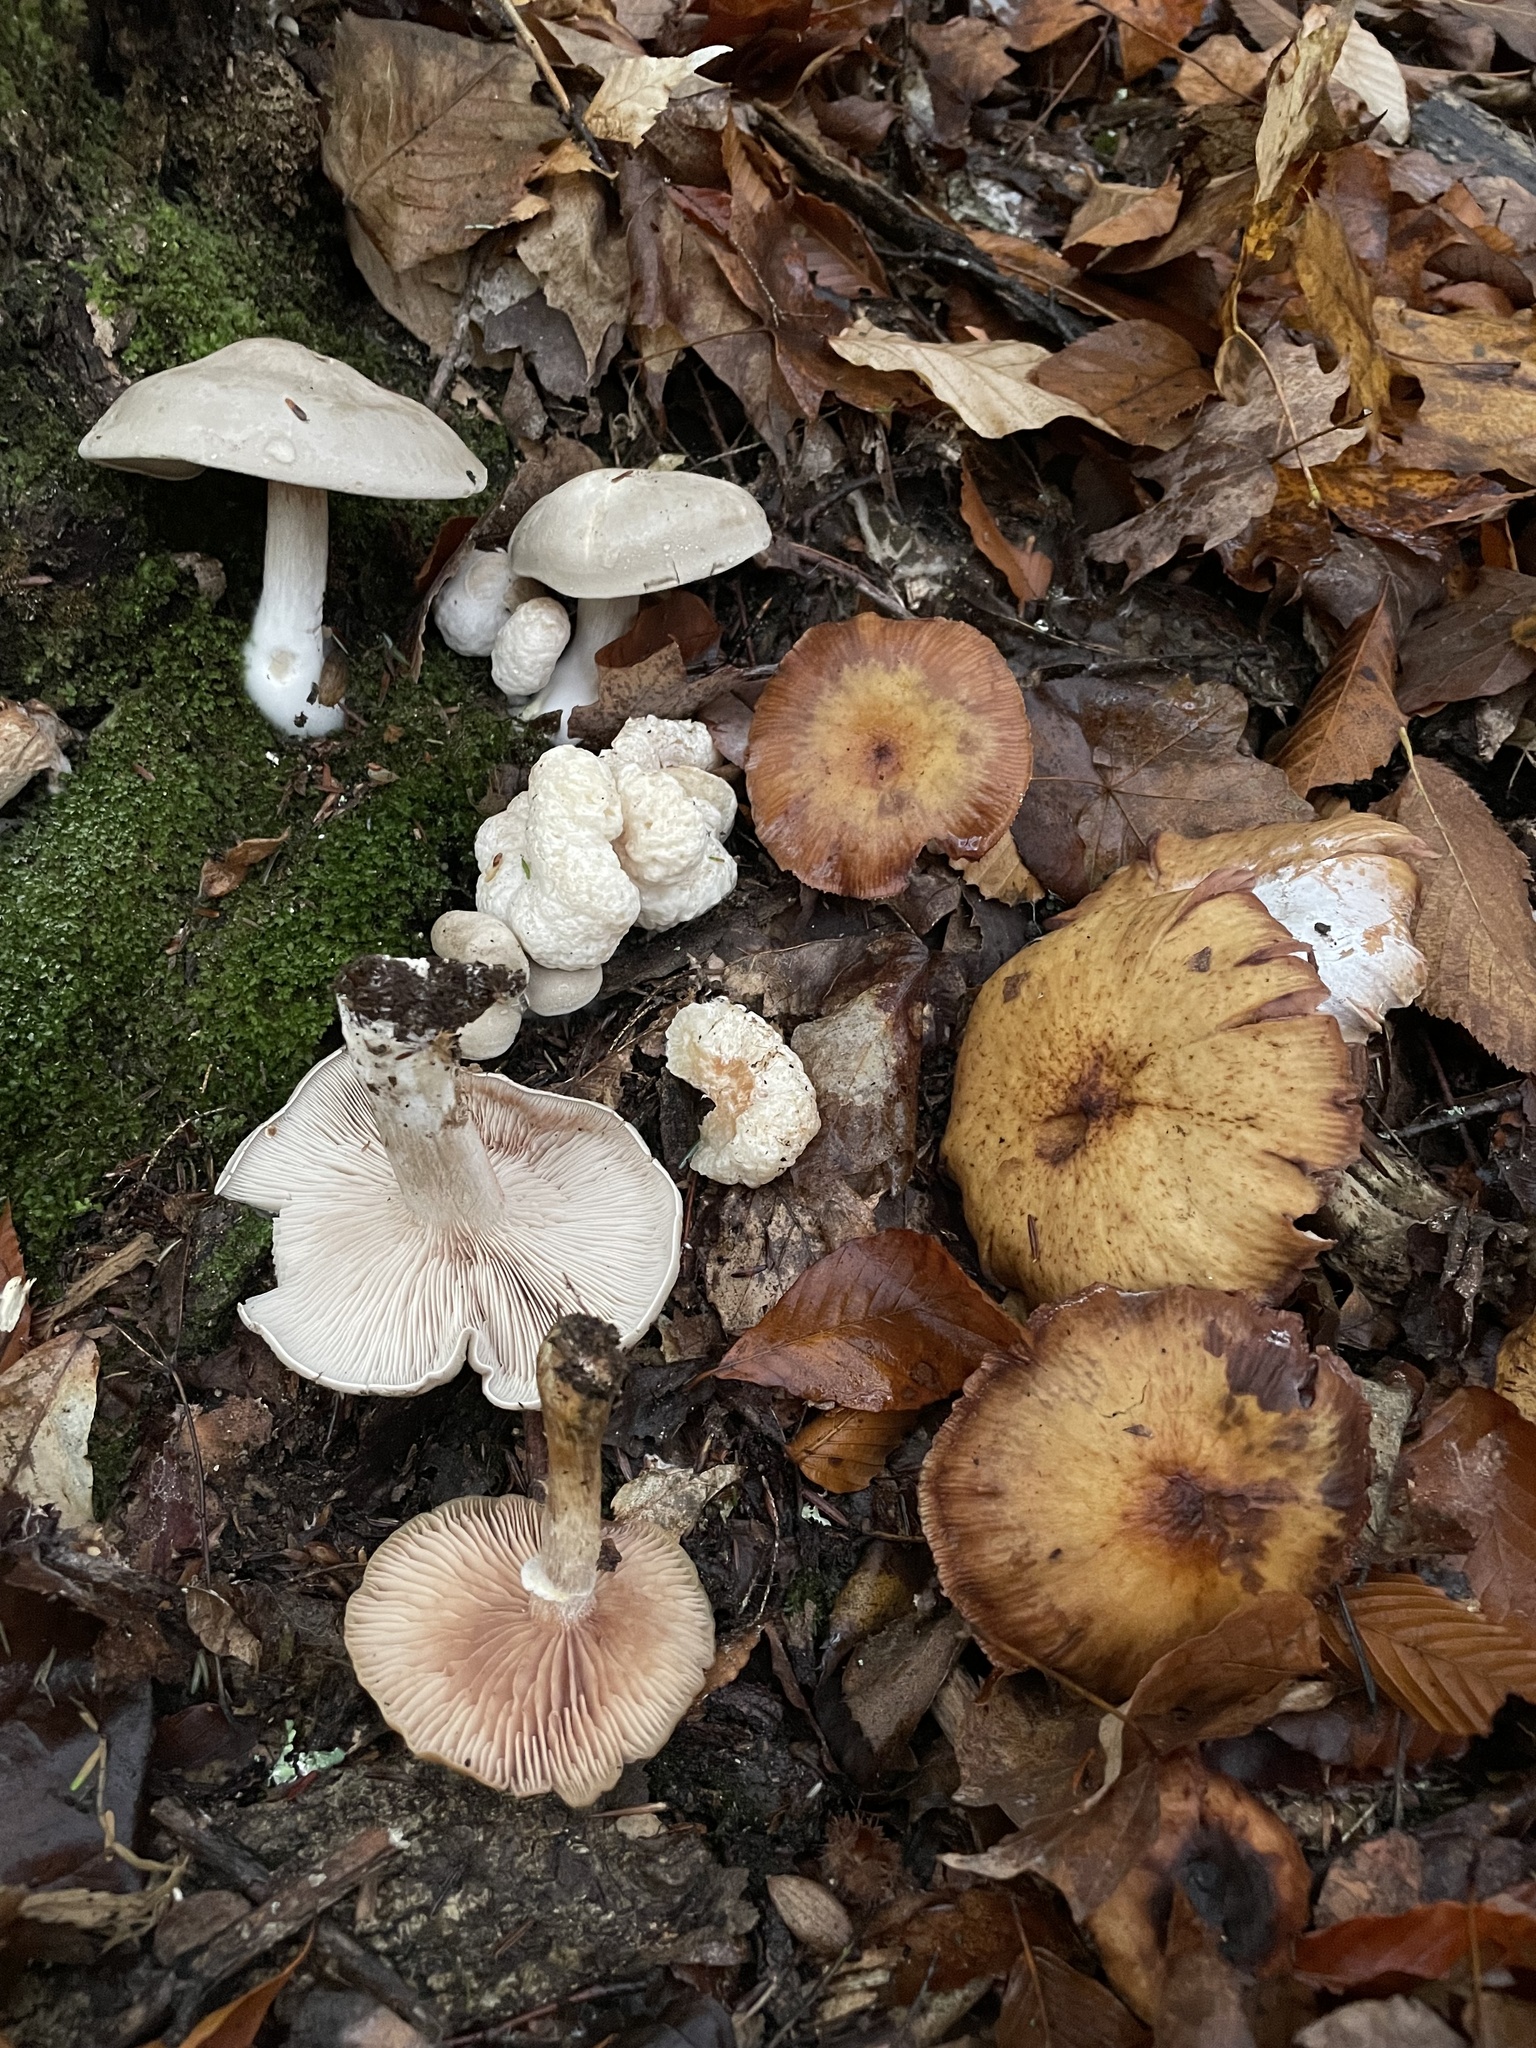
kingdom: Fungi
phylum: Basidiomycota
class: Agaricomycetes
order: Agaricales
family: Physalacriaceae
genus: Armillaria
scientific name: Armillaria ostoyae
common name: Dark honey fungus
